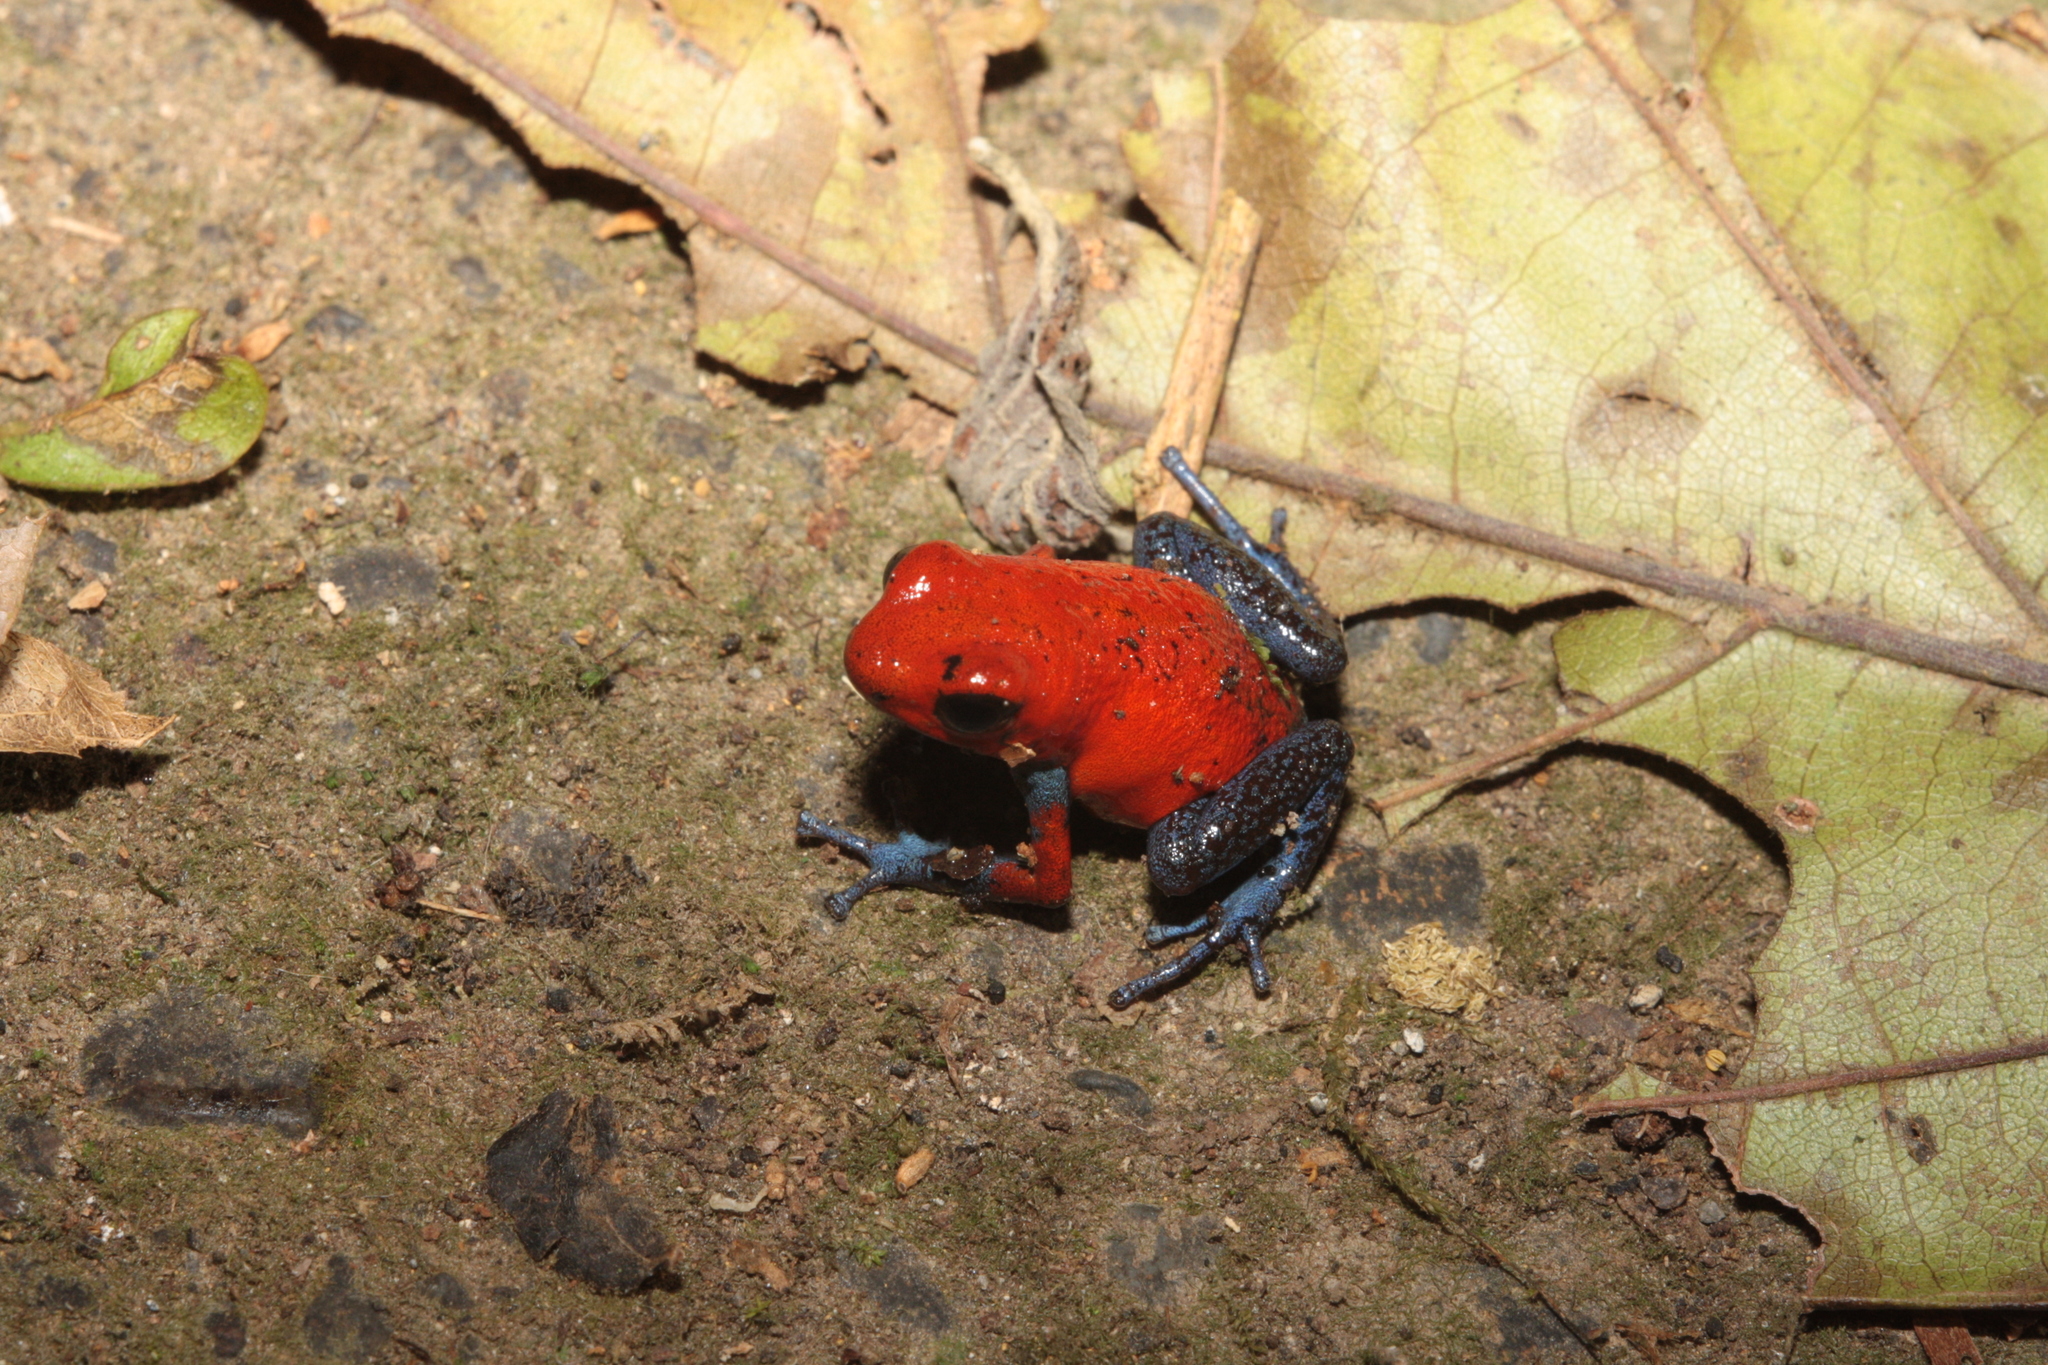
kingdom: Animalia
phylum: Chordata
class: Amphibia
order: Anura
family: Dendrobatidae
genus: Oophaga
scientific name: Oophaga pumilio
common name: Flaming poison frog
